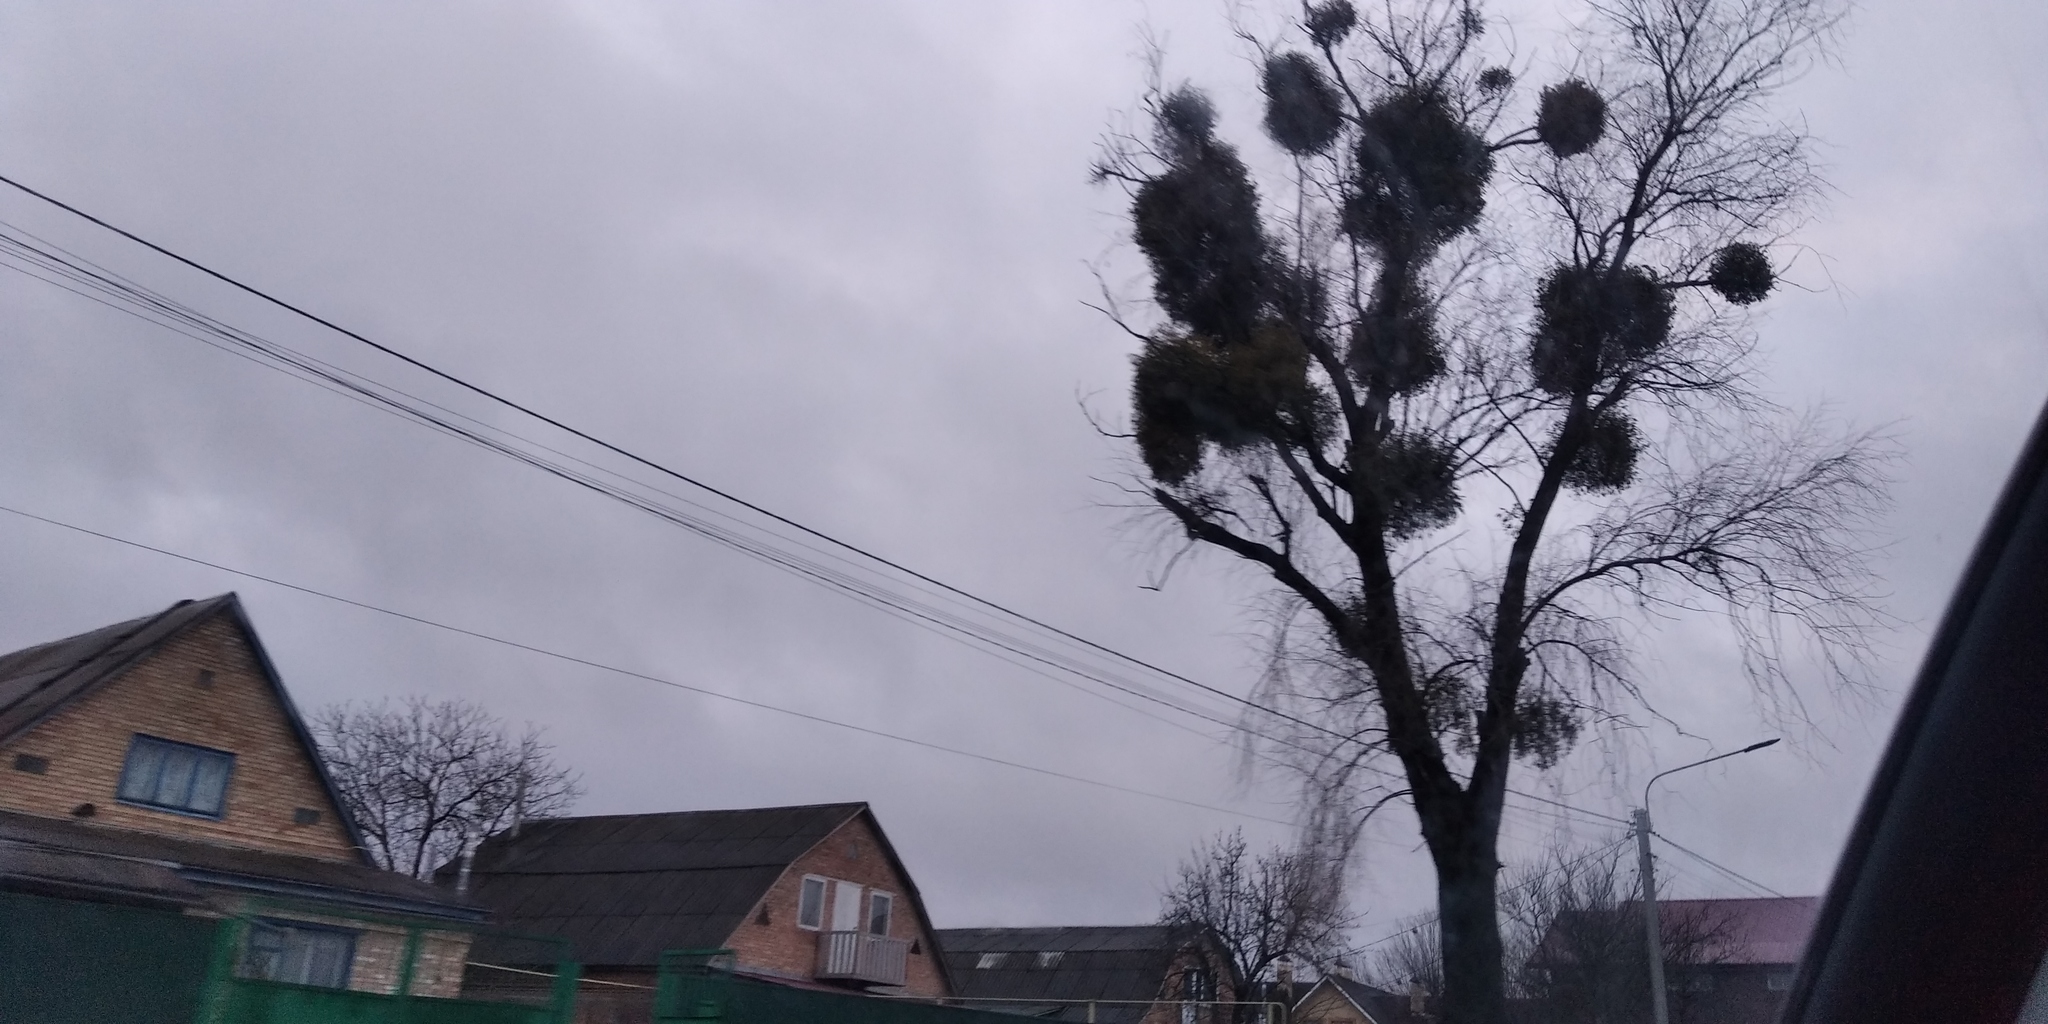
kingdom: Plantae
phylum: Tracheophyta
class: Magnoliopsida
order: Santalales
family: Viscaceae
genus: Viscum
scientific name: Viscum album
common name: Mistletoe
